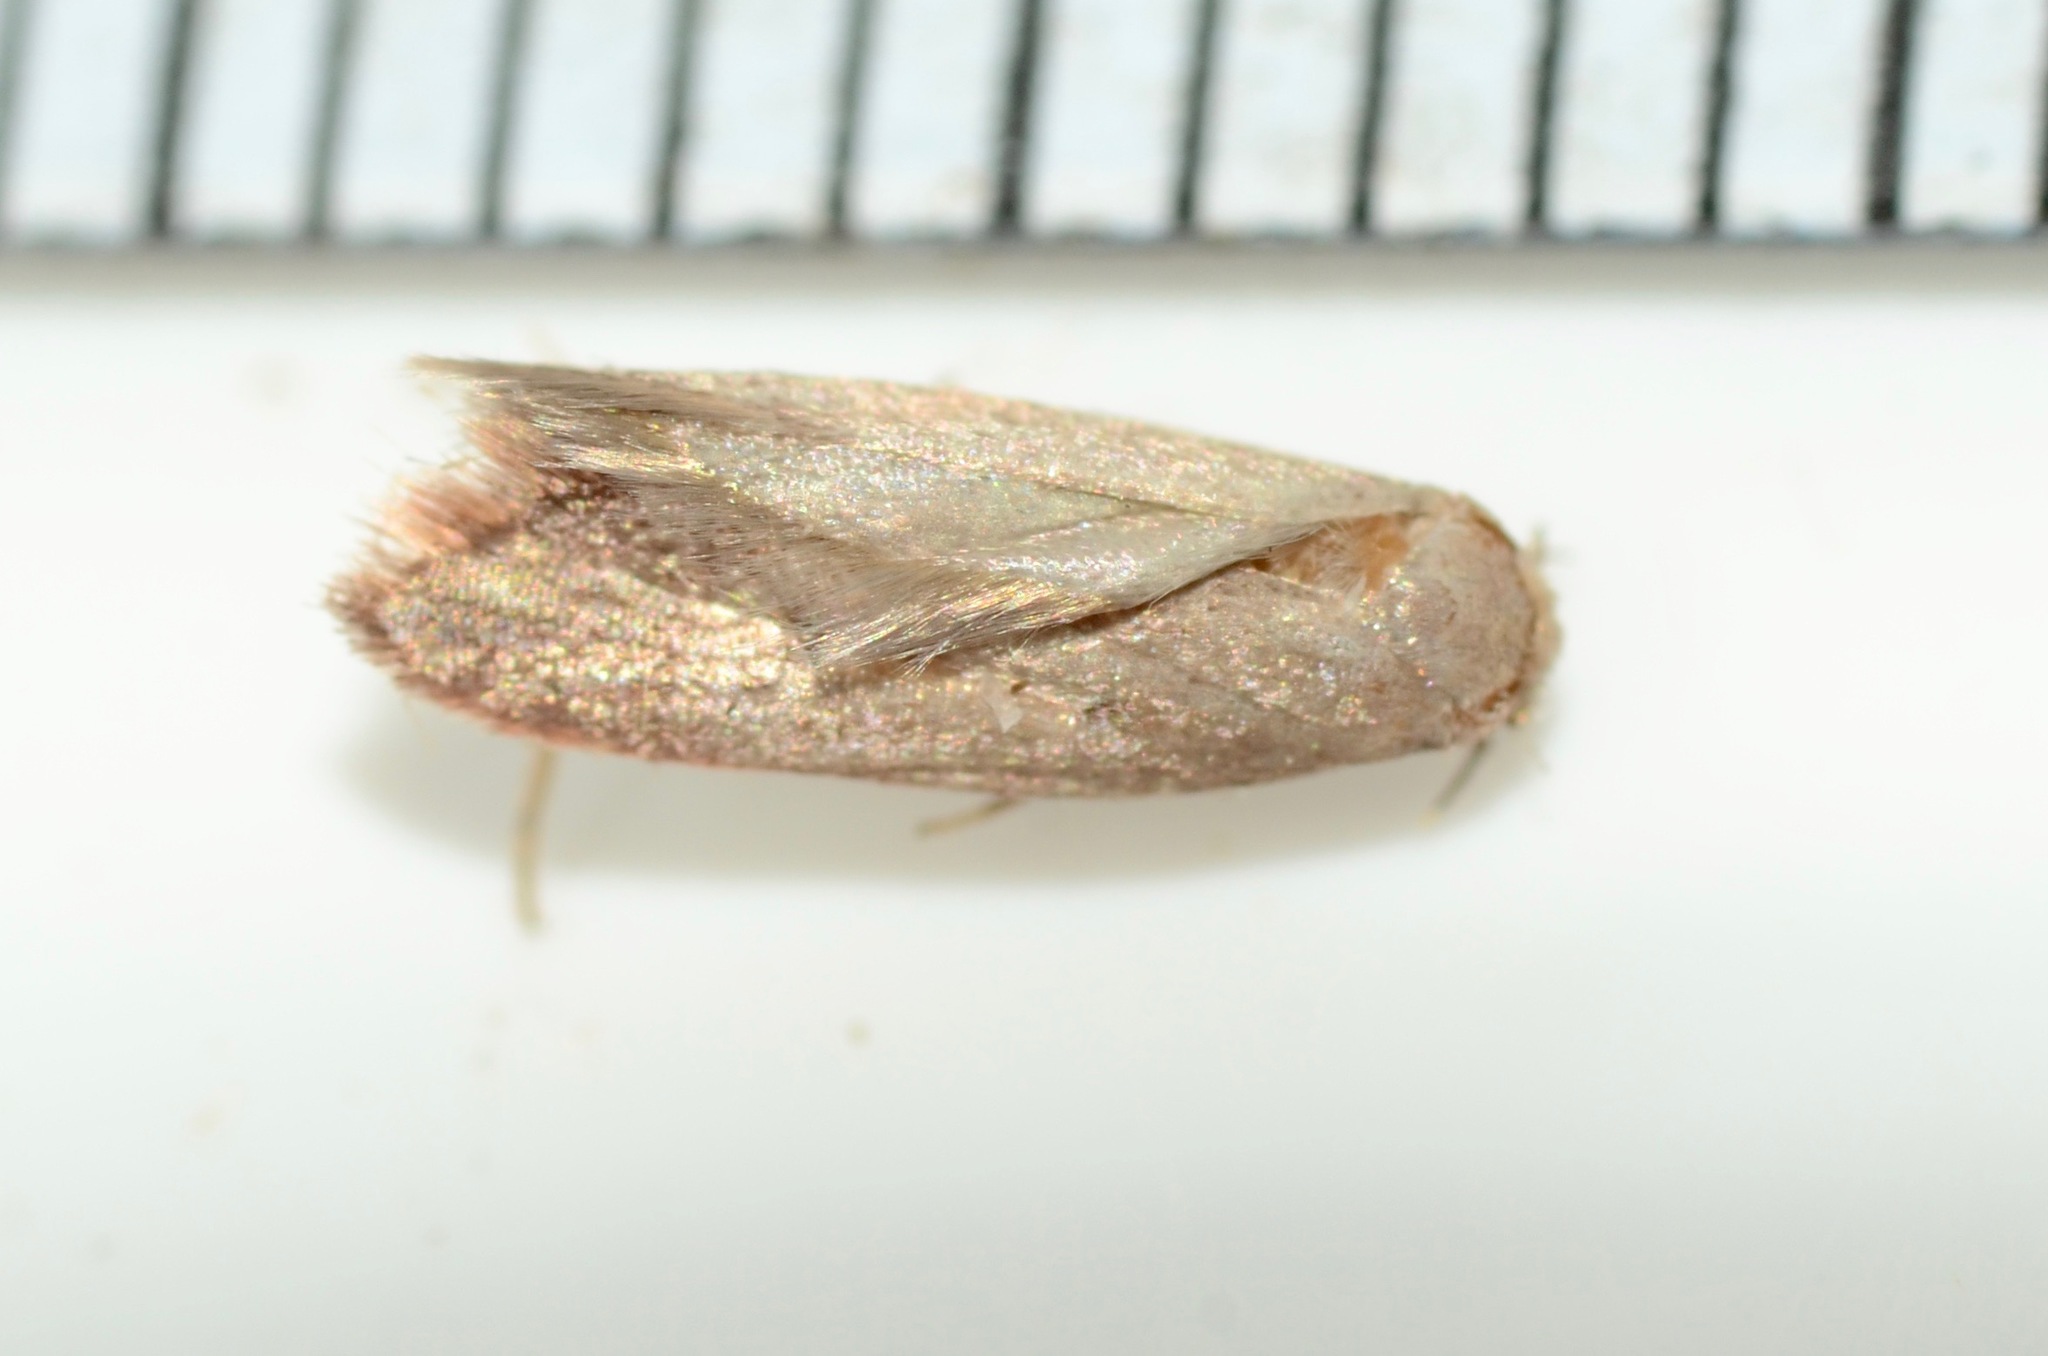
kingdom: Animalia
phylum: Arthropoda
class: Insecta
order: Lepidoptera
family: Oecophoridae
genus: Tachystola
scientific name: Tachystola acroxantha
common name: Ruddy streak
